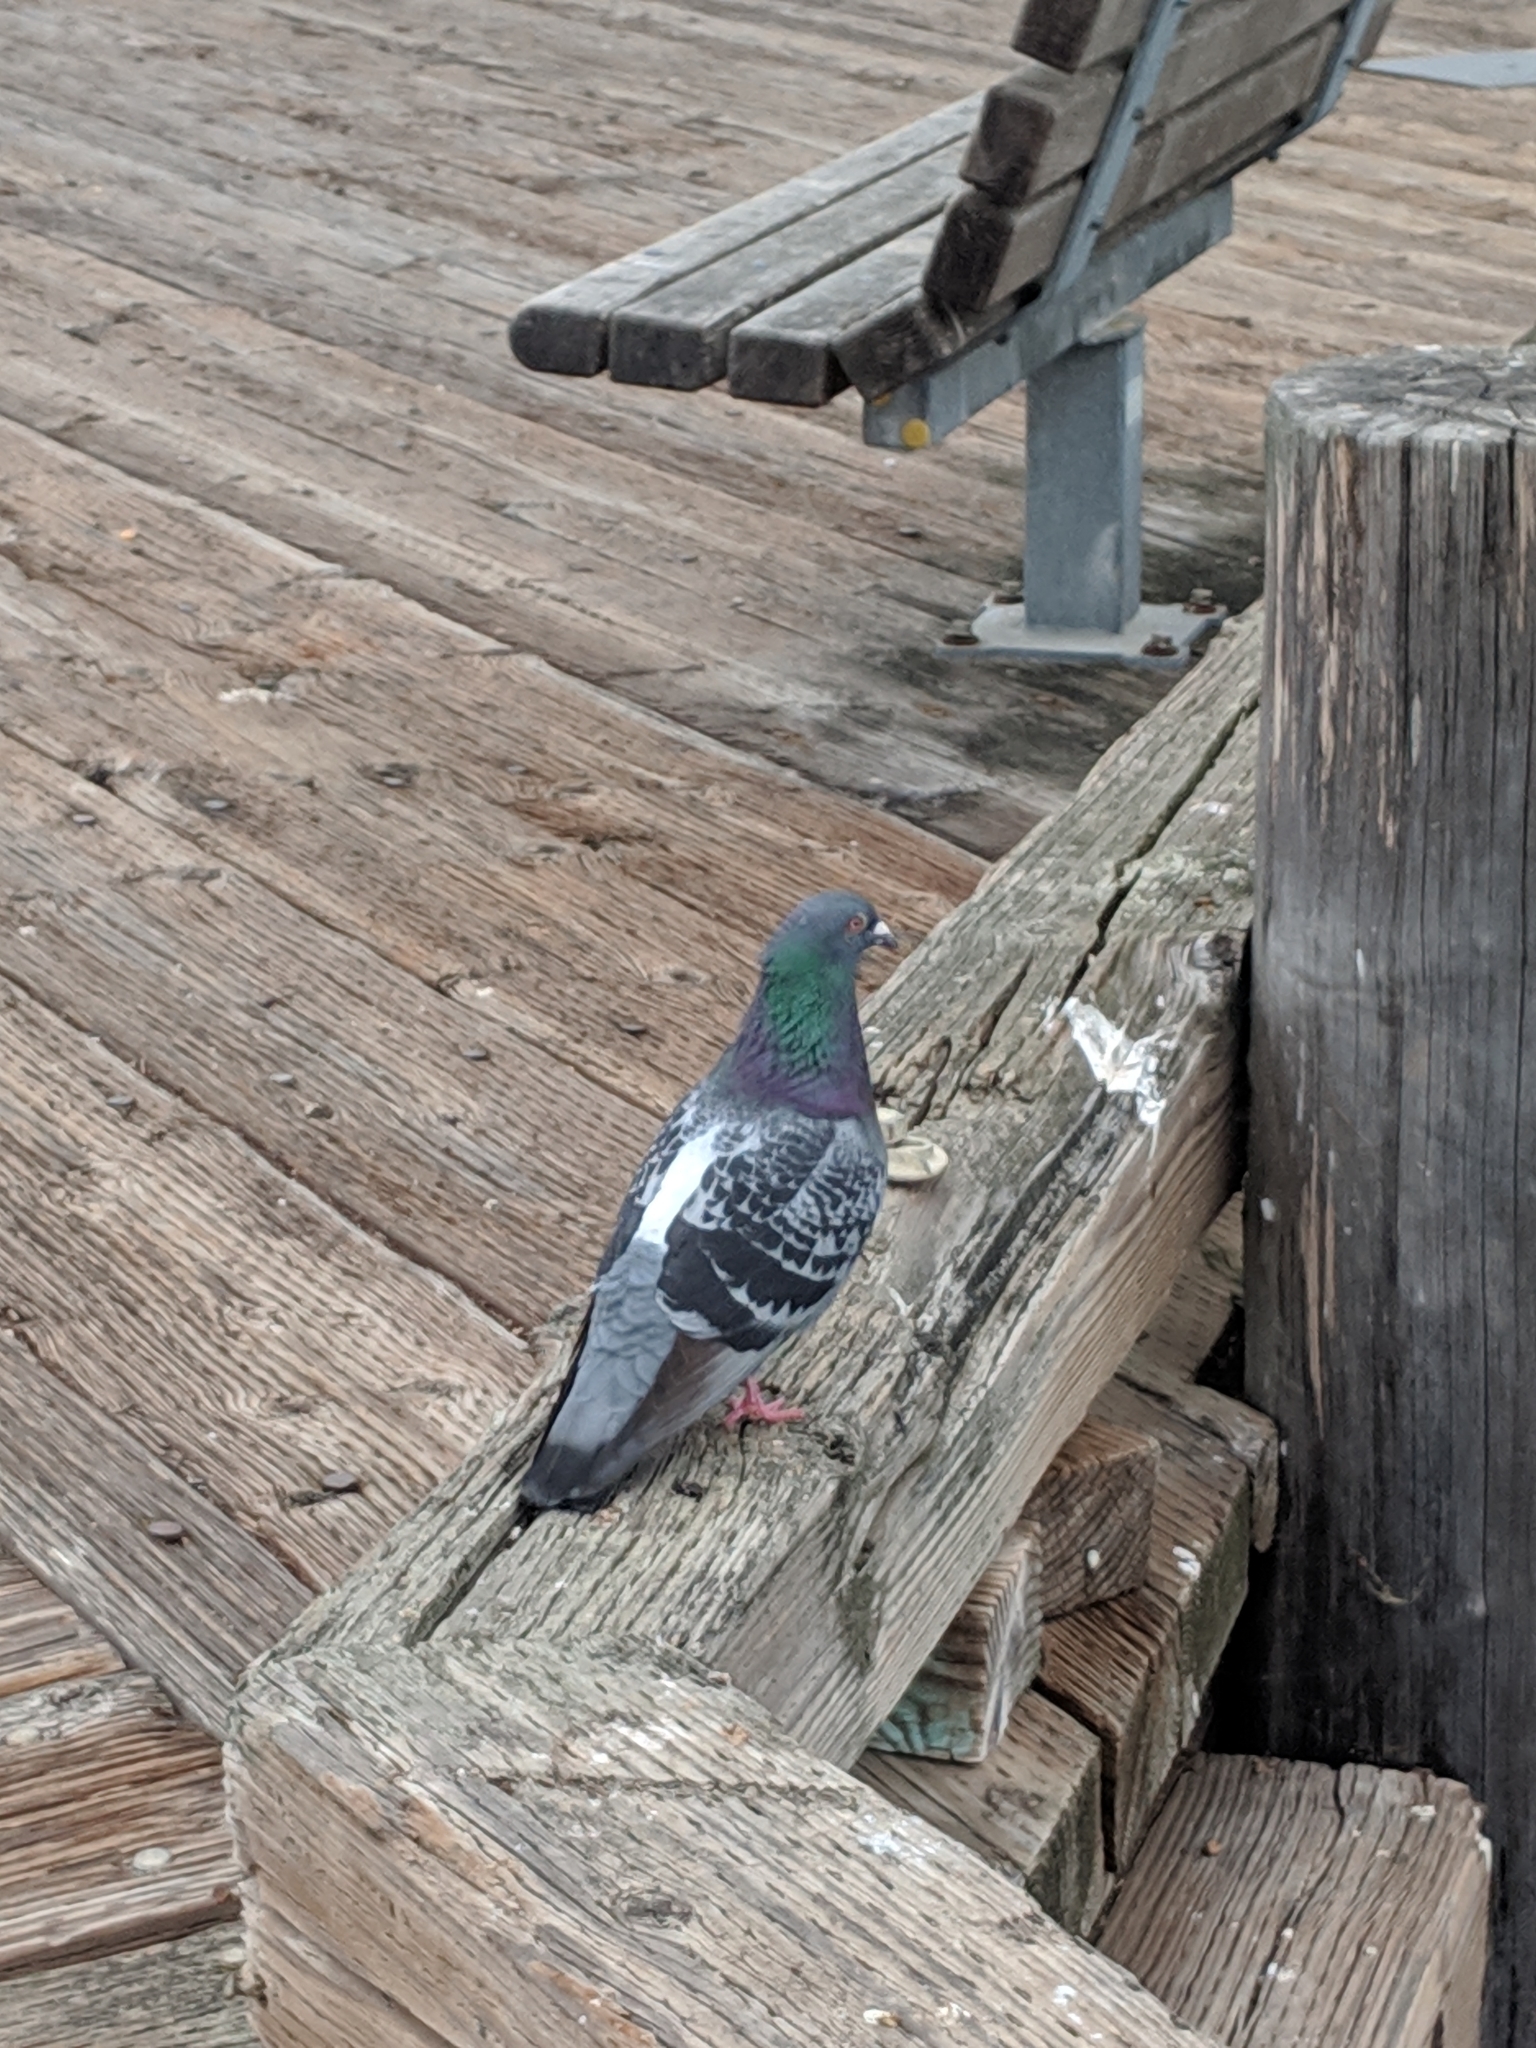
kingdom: Animalia
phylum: Chordata
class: Aves
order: Columbiformes
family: Columbidae
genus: Columba
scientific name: Columba livia
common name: Rock pigeon
